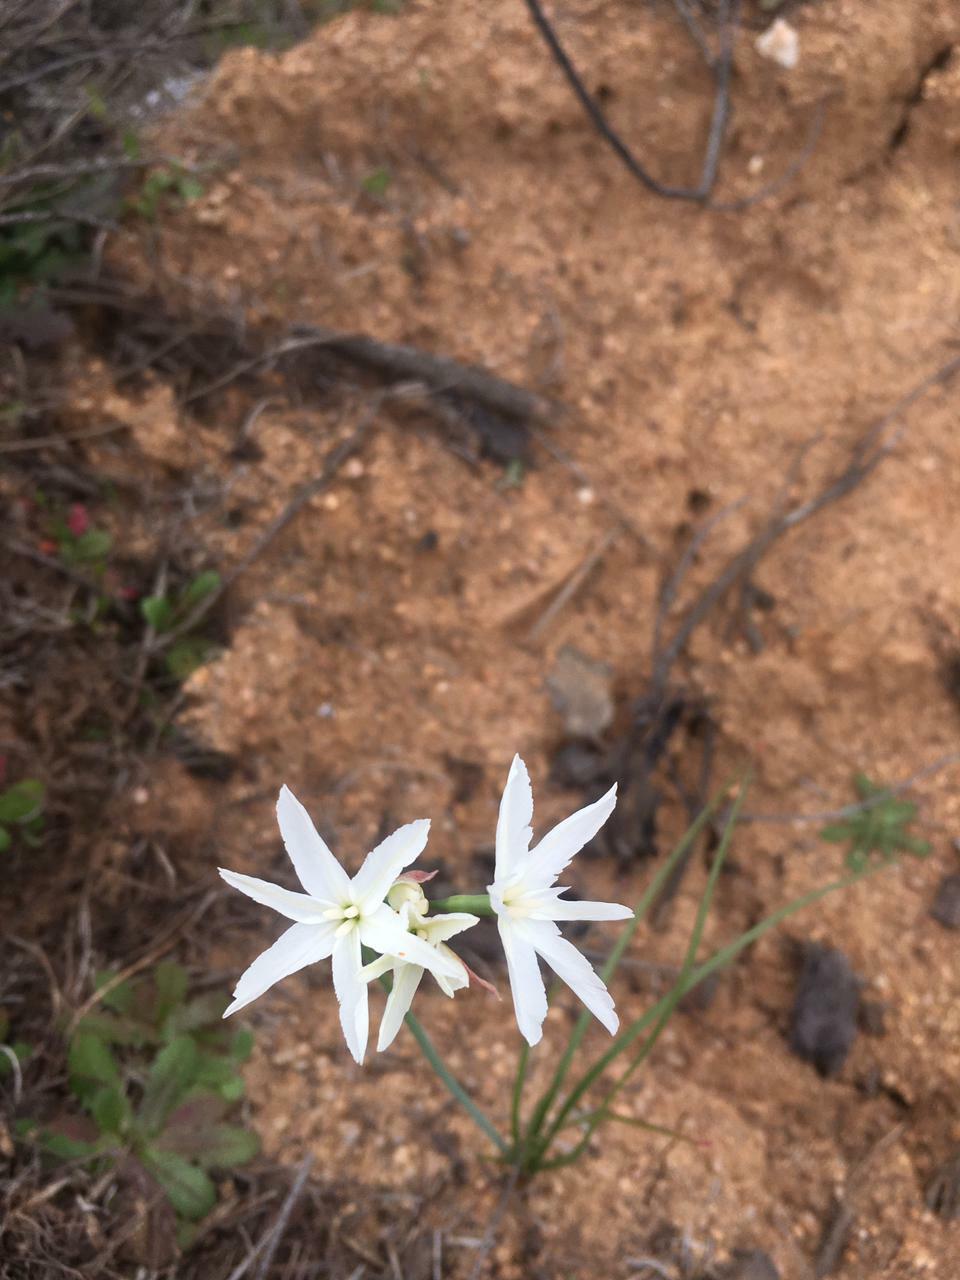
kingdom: Plantae
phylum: Tracheophyta
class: Liliopsida
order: Asparagales
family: Amaryllidaceae
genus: Leucocoryne
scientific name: Leucocoryne ixioides
